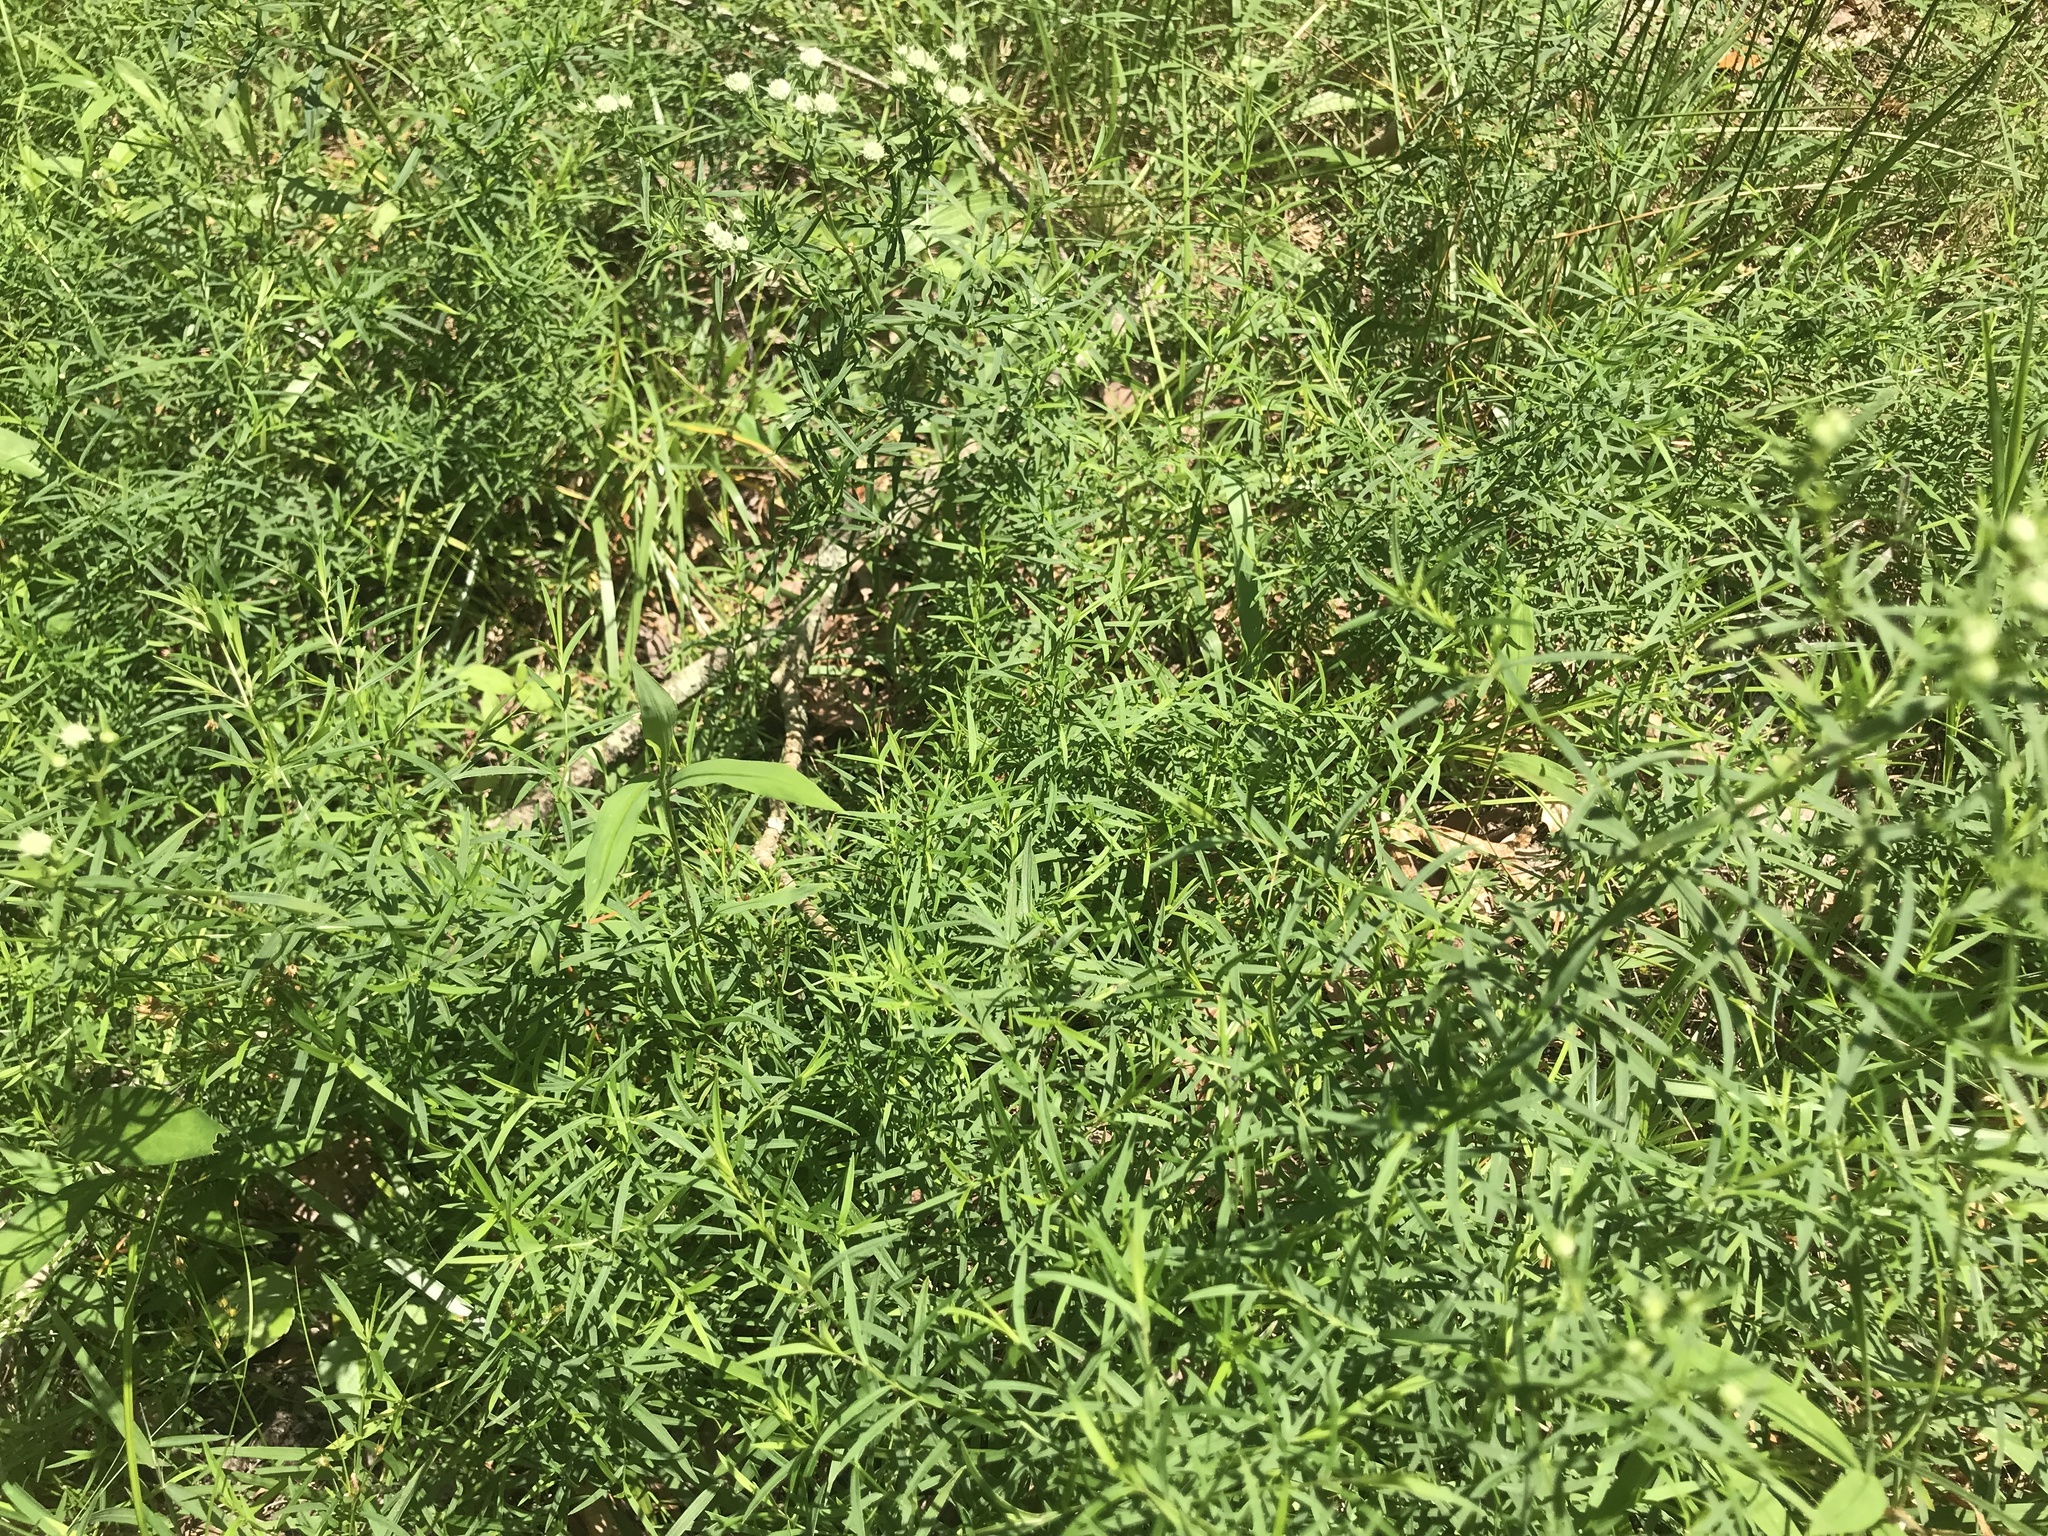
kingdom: Plantae
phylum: Tracheophyta
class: Magnoliopsida
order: Lamiales
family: Lamiaceae
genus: Pycnanthemum
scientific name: Pycnanthemum tenuifolium
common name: Narrow-leaf mountain-mint
